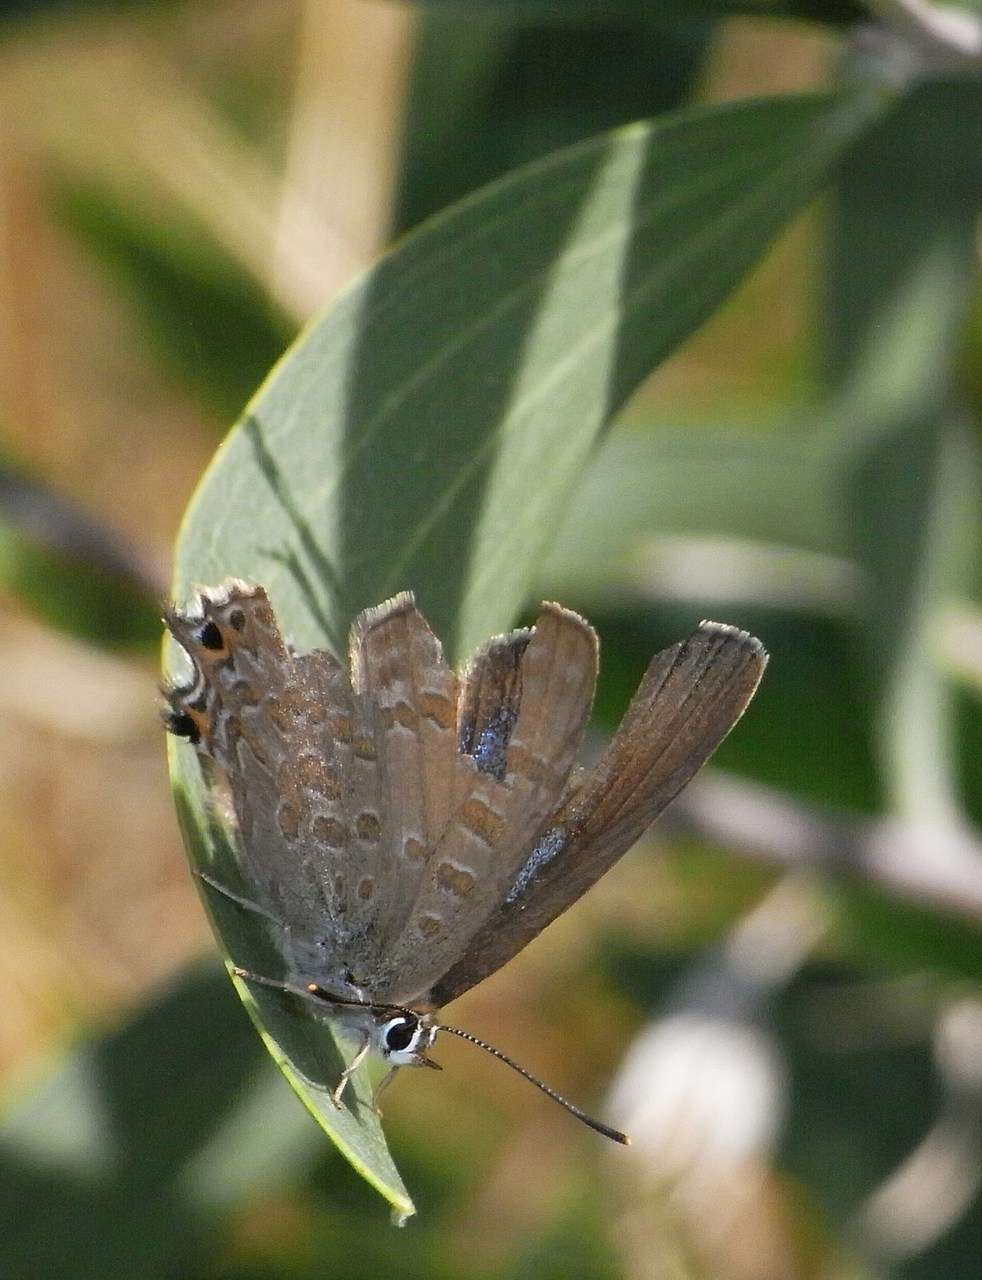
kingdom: Animalia
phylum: Arthropoda
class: Insecta
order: Lepidoptera
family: Lycaenidae
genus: Jalmenus
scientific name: Jalmenus icilius
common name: Amethyst hairstreak
